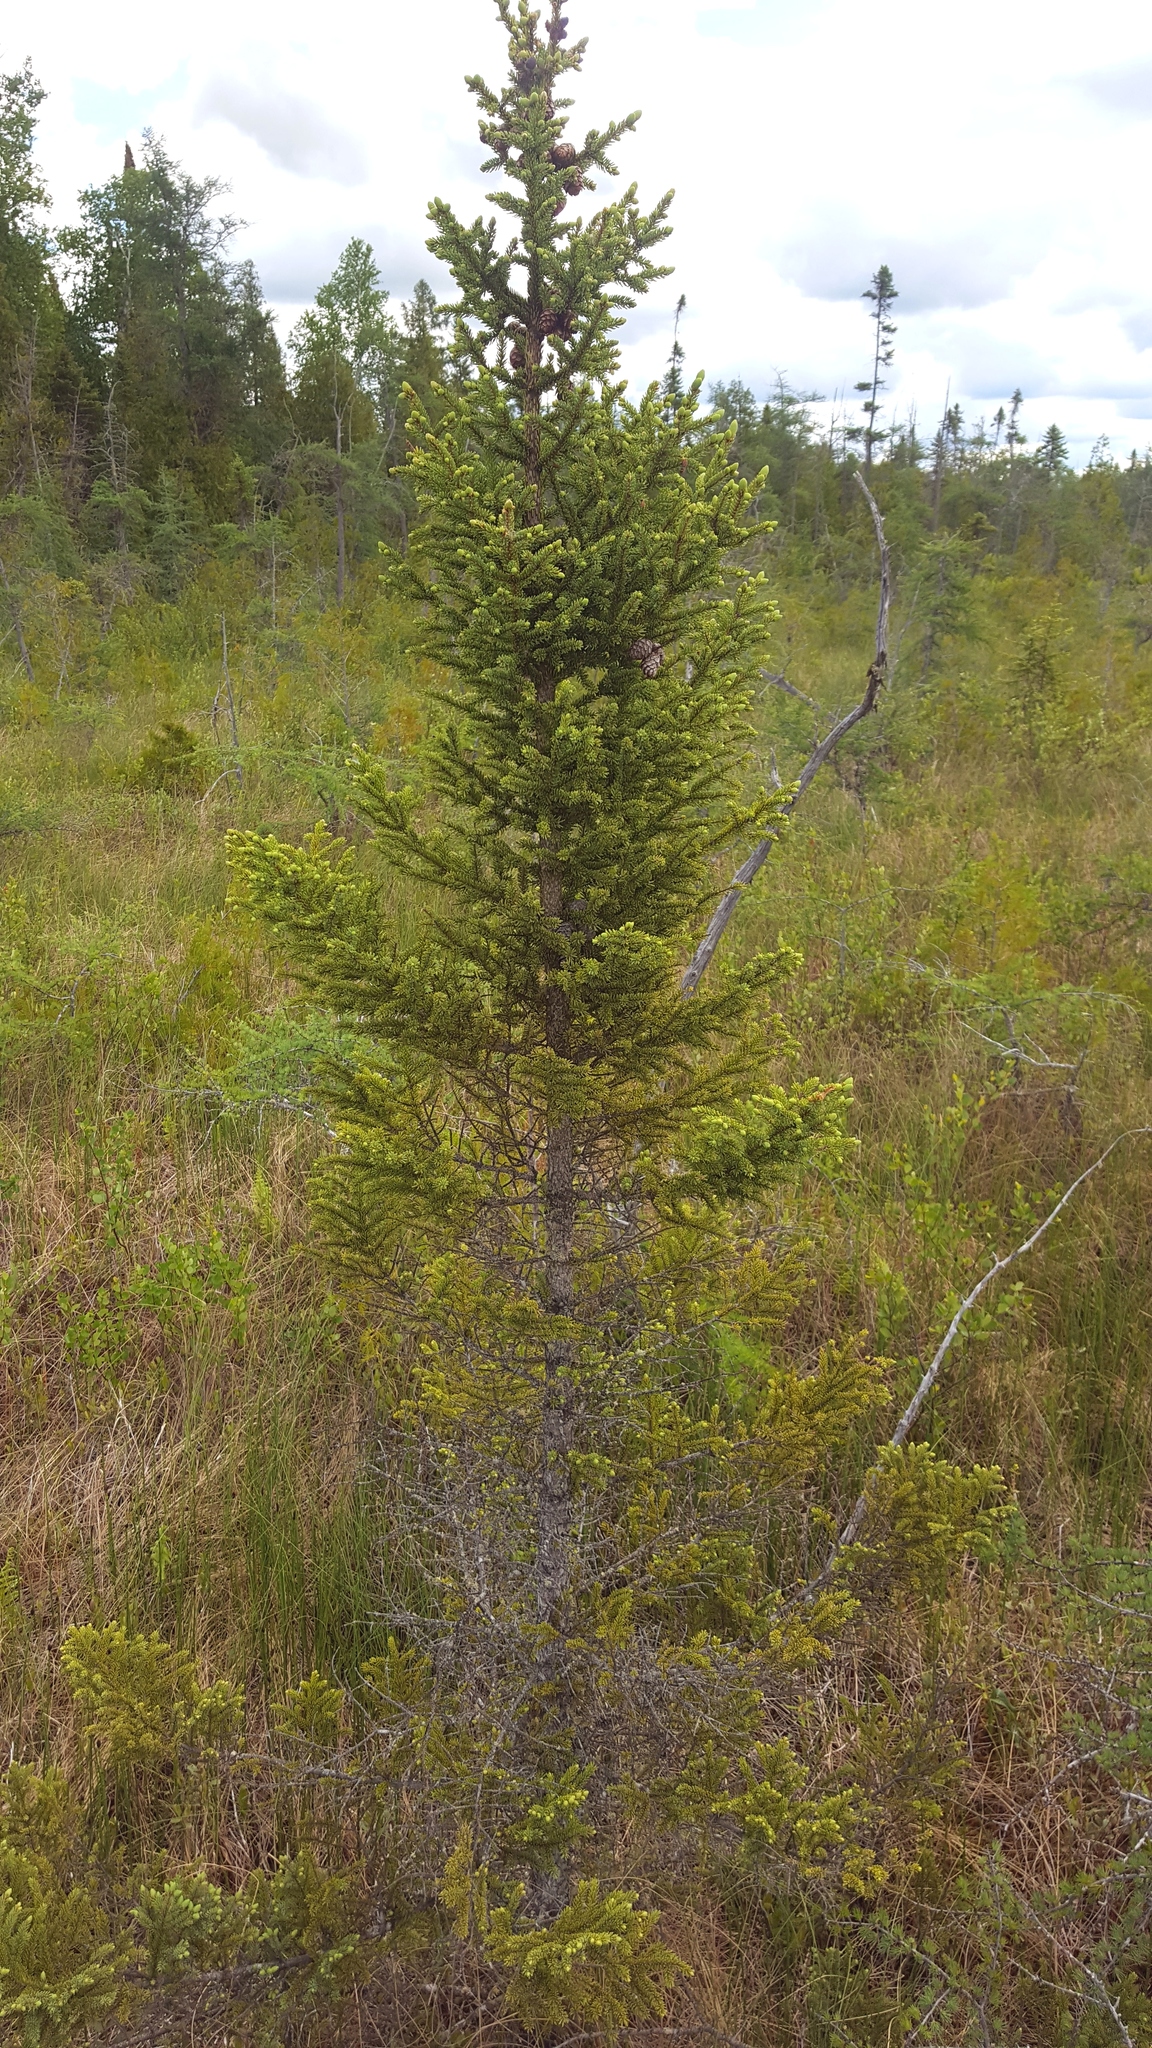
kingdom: Plantae
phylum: Tracheophyta
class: Pinopsida
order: Pinales
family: Pinaceae
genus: Picea
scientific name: Picea mariana
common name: Black spruce
